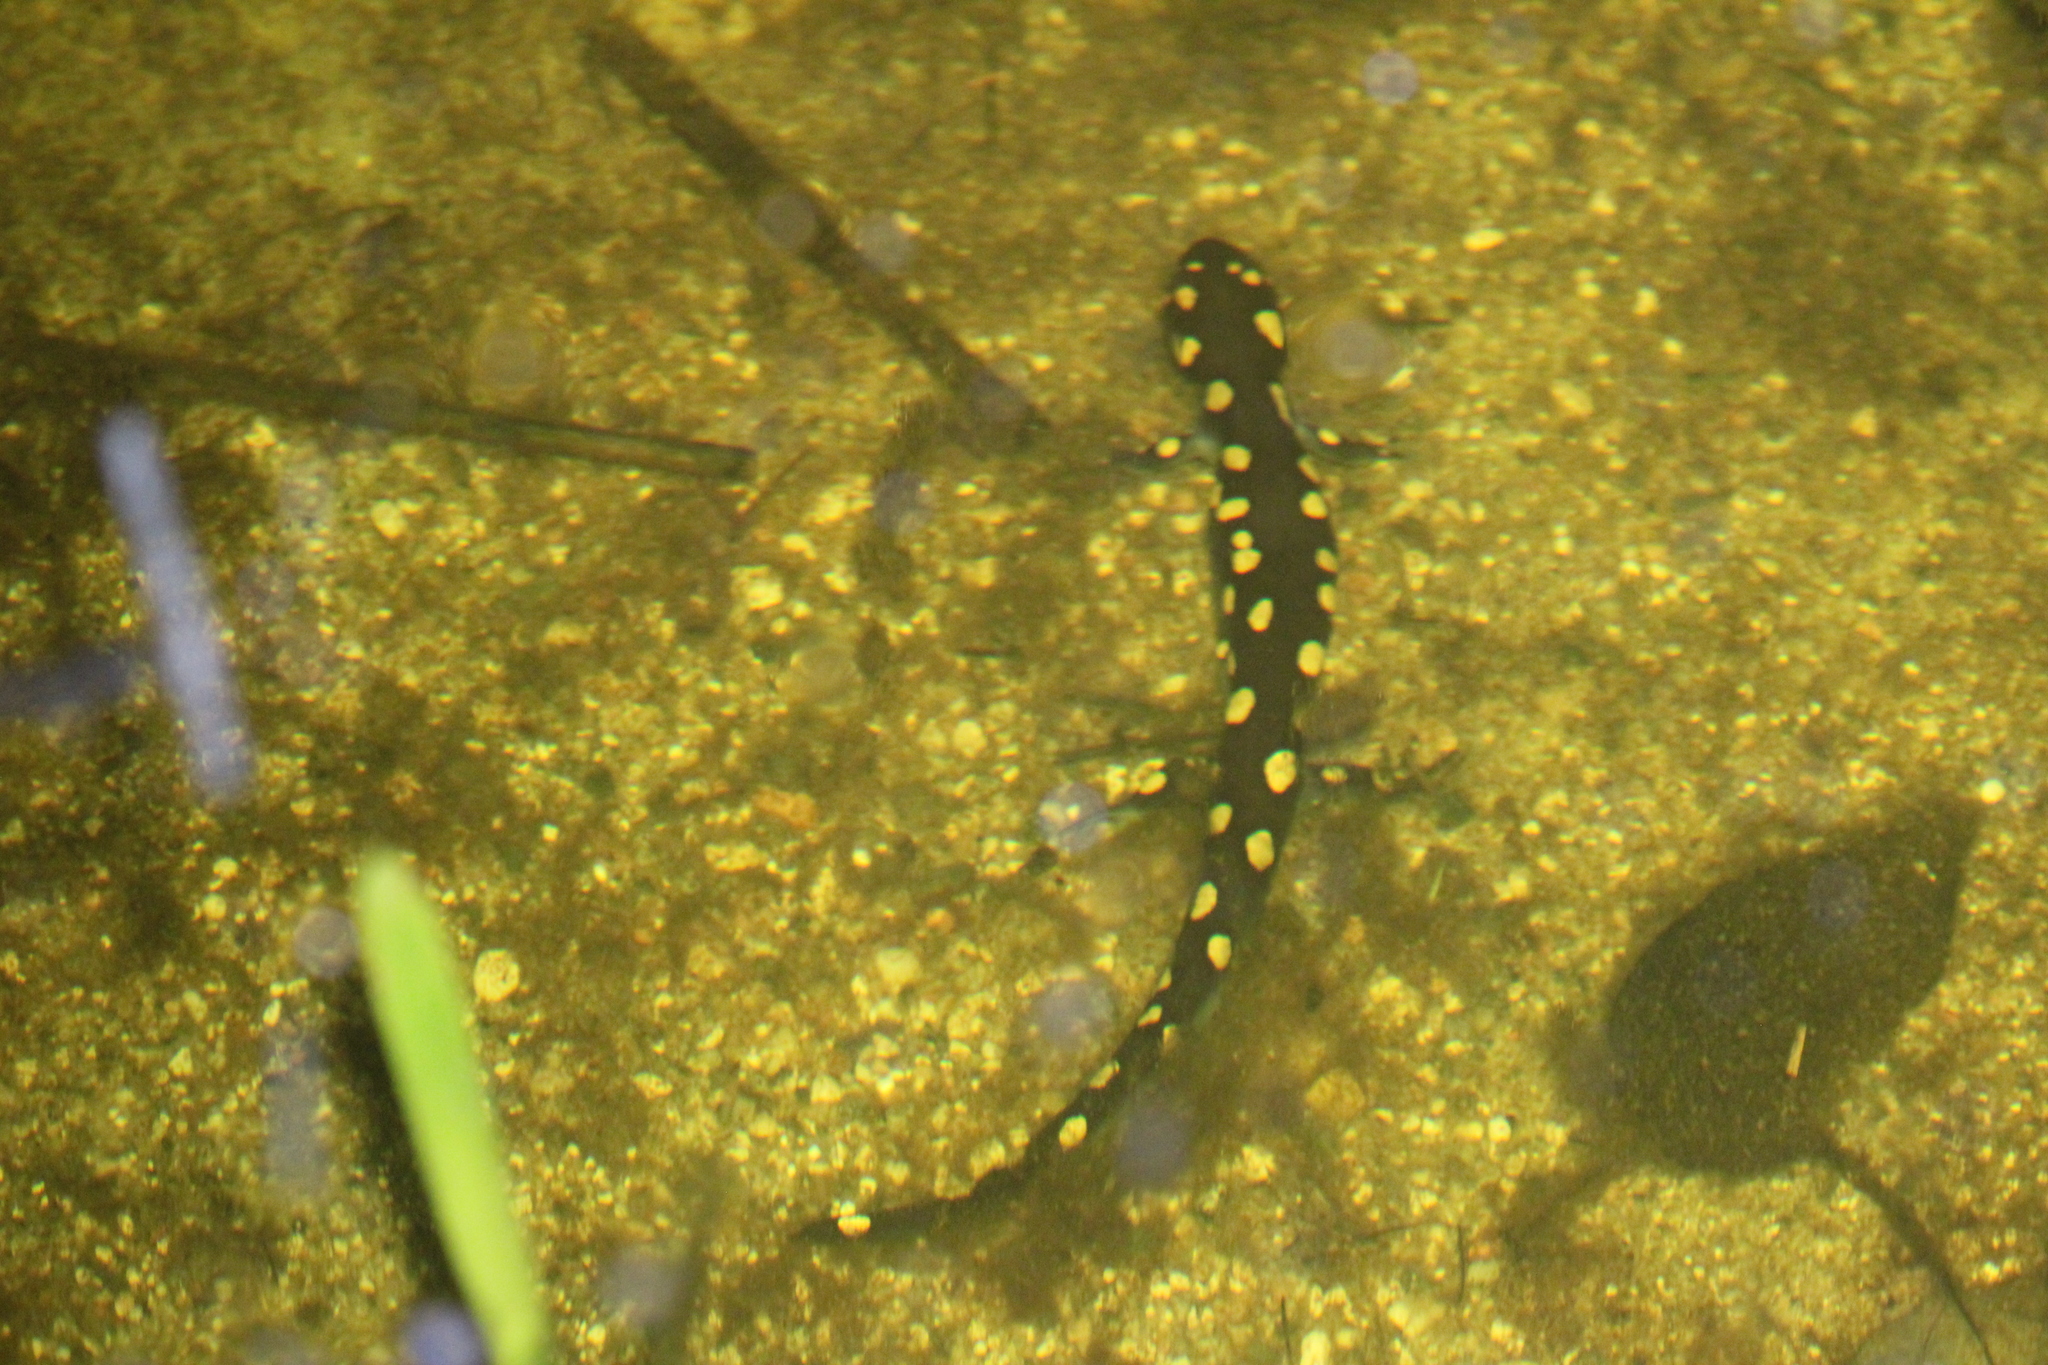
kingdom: Animalia
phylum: Chordata
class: Amphibia
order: Caudata
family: Ambystomatidae
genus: Ambystoma
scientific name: Ambystoma maculatum
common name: Spotted salamander
